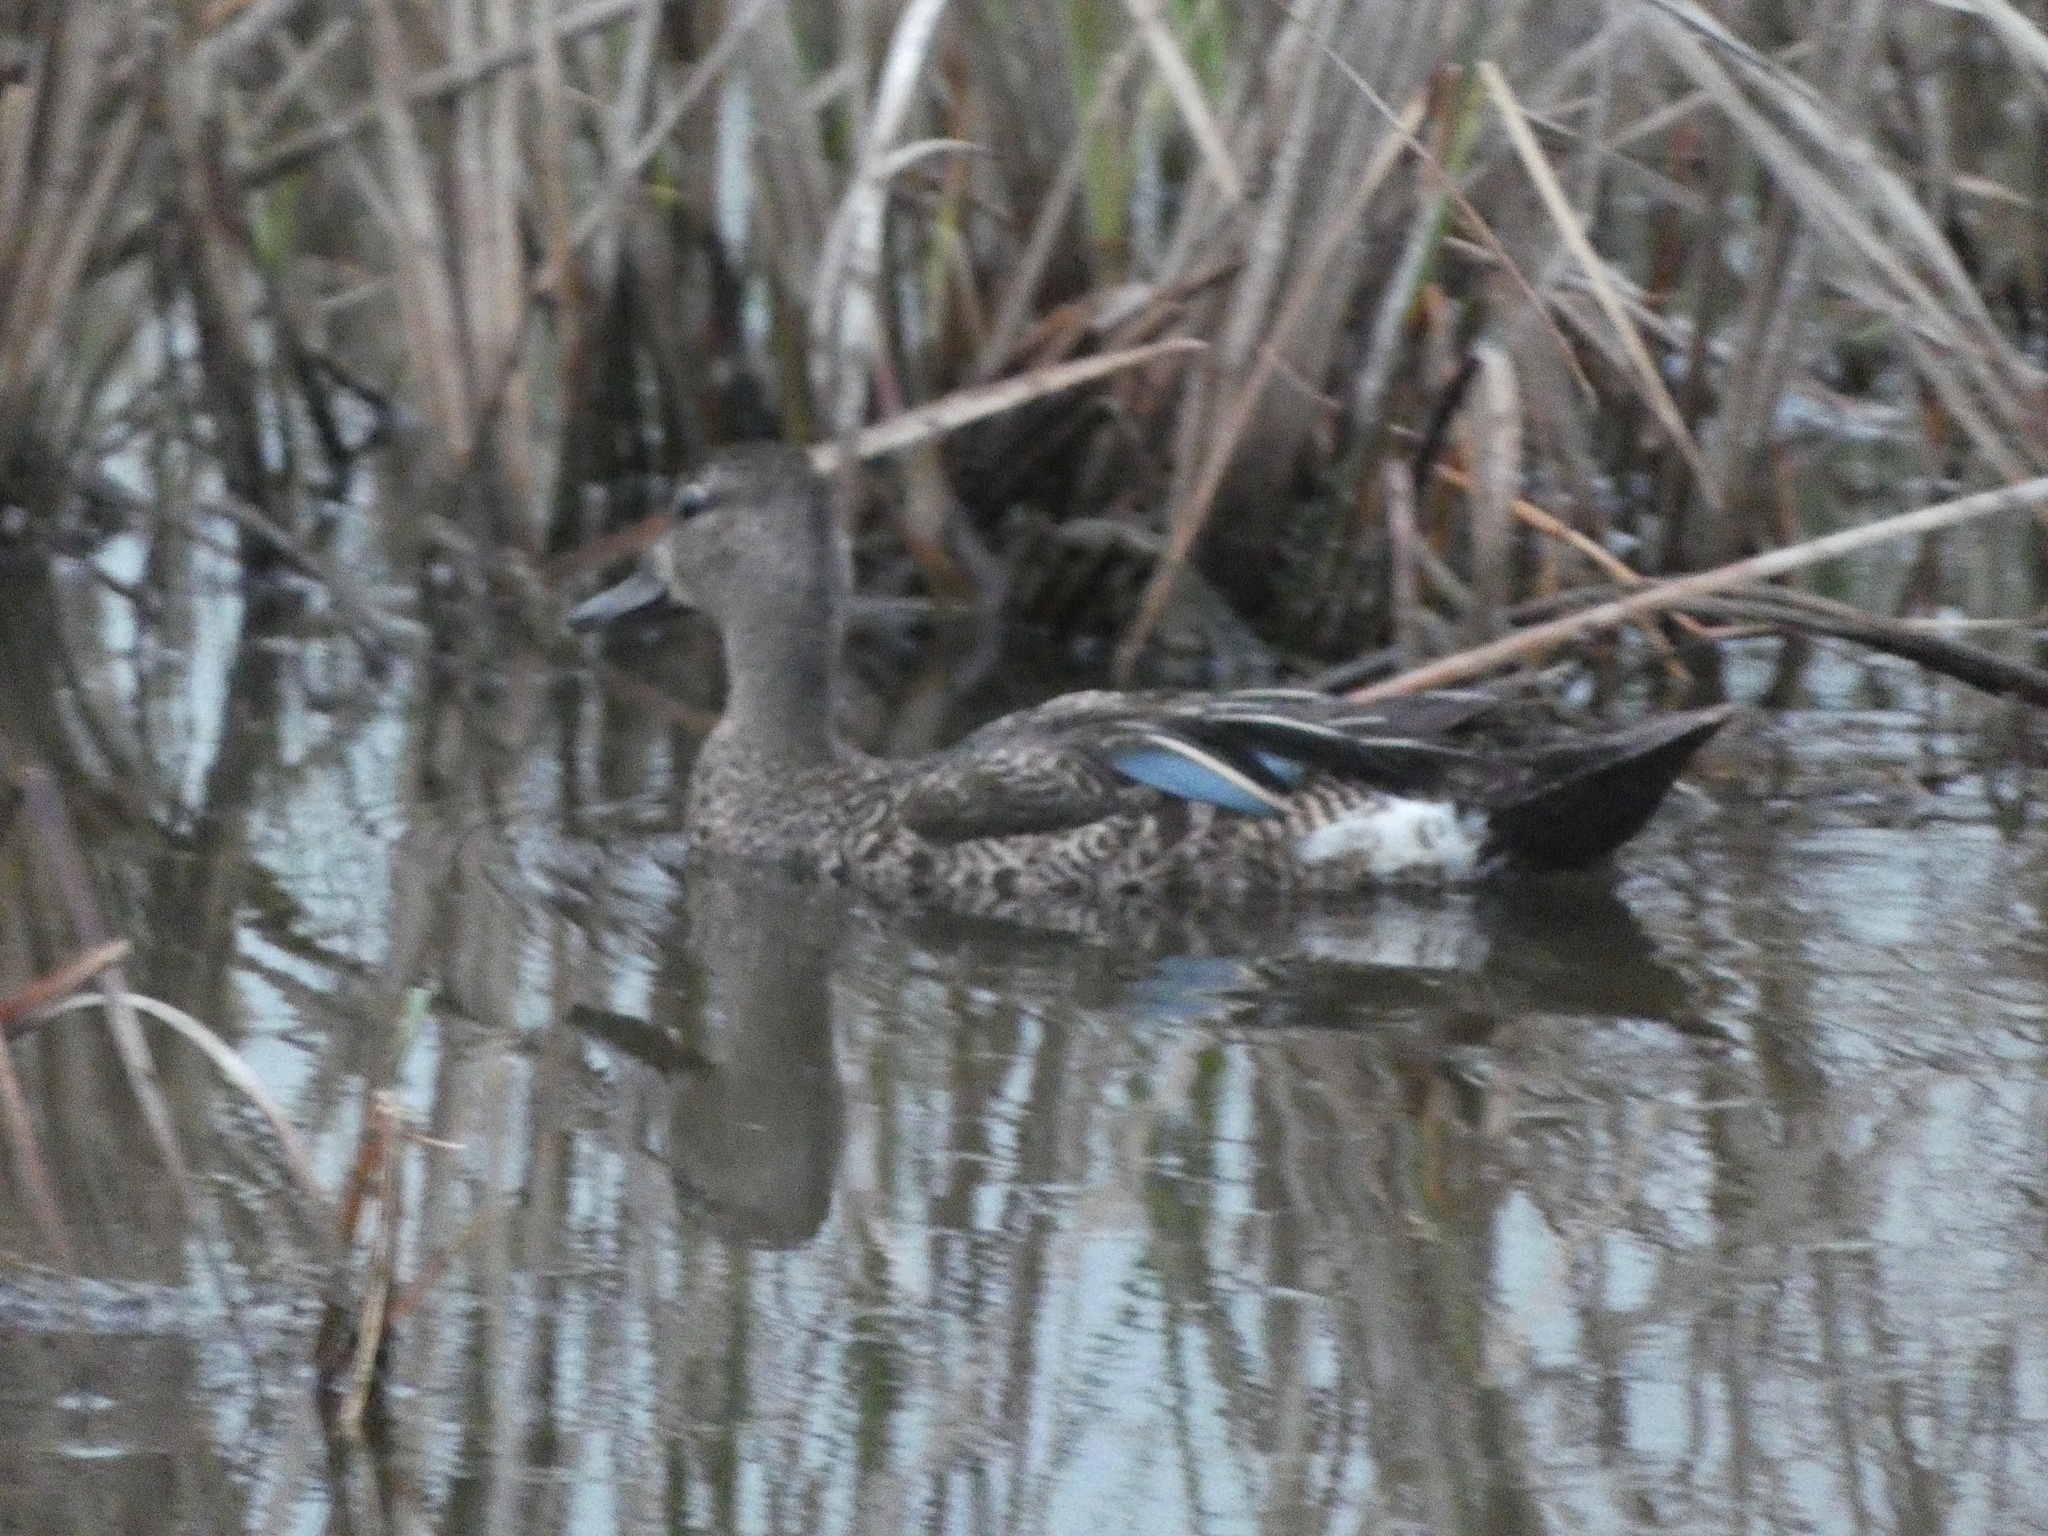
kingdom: Animalia
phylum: Chordata
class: Aves
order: Anseriformes
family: Anatidae
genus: Spatula
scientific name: Spatula discors
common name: Blue-winged teal
